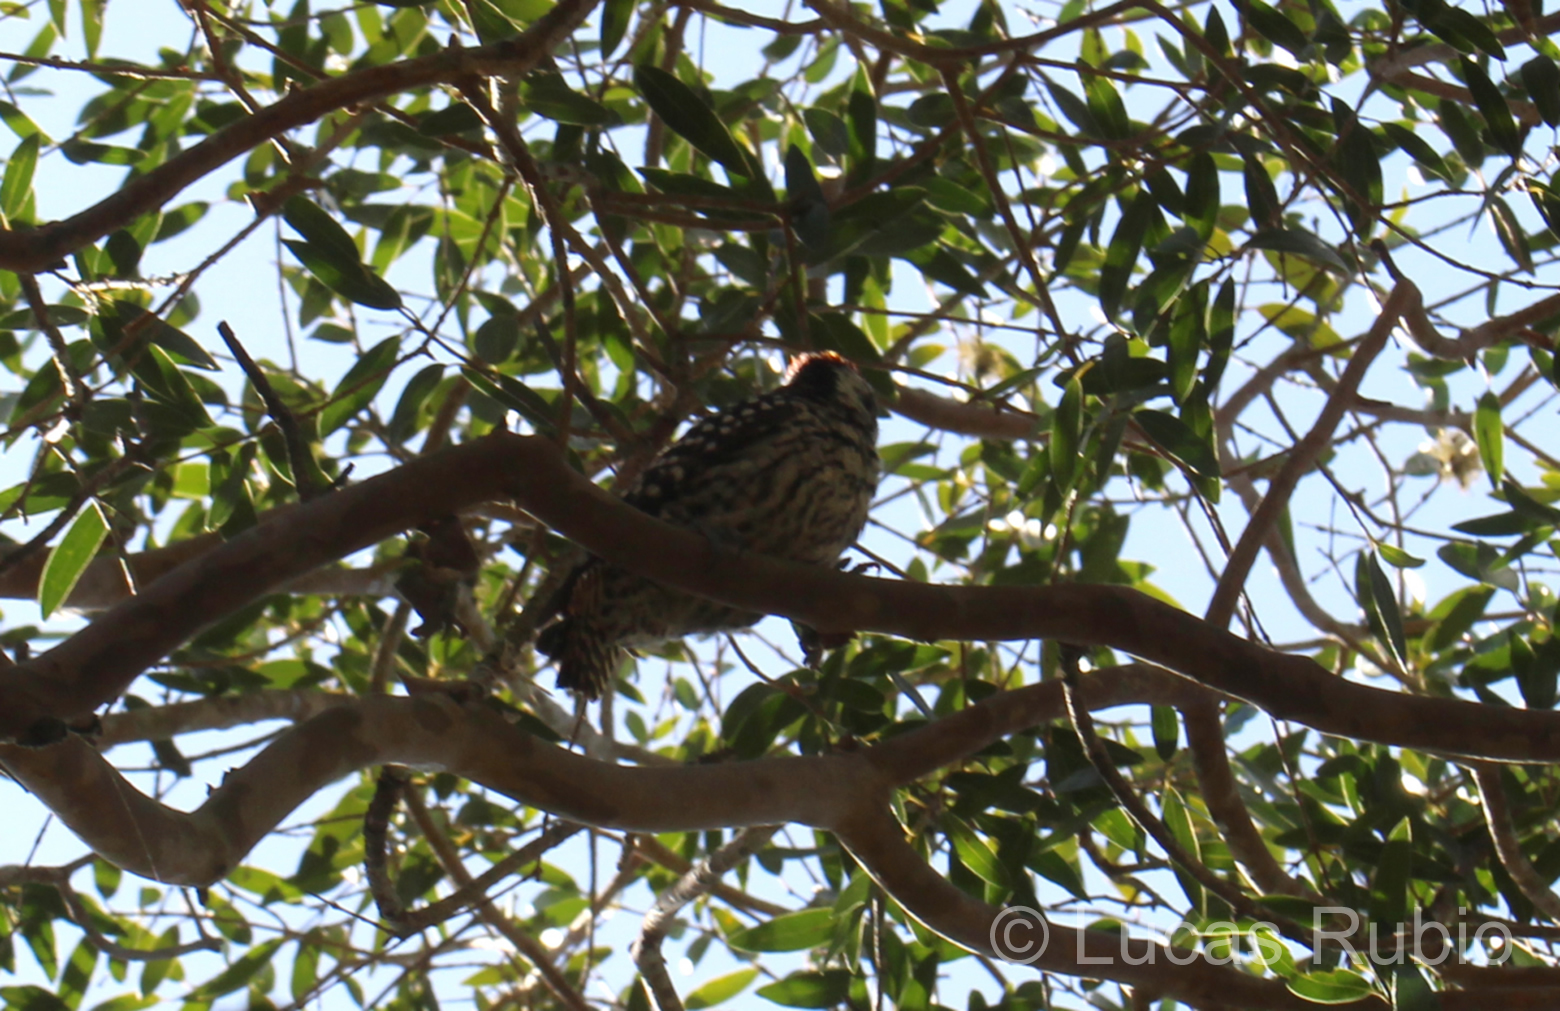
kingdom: Animalia
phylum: Chordata
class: Aves
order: Piciformes
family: Picidae
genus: Veniliornis
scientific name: Veniliornis mixtus
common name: Checkered woodpecker
